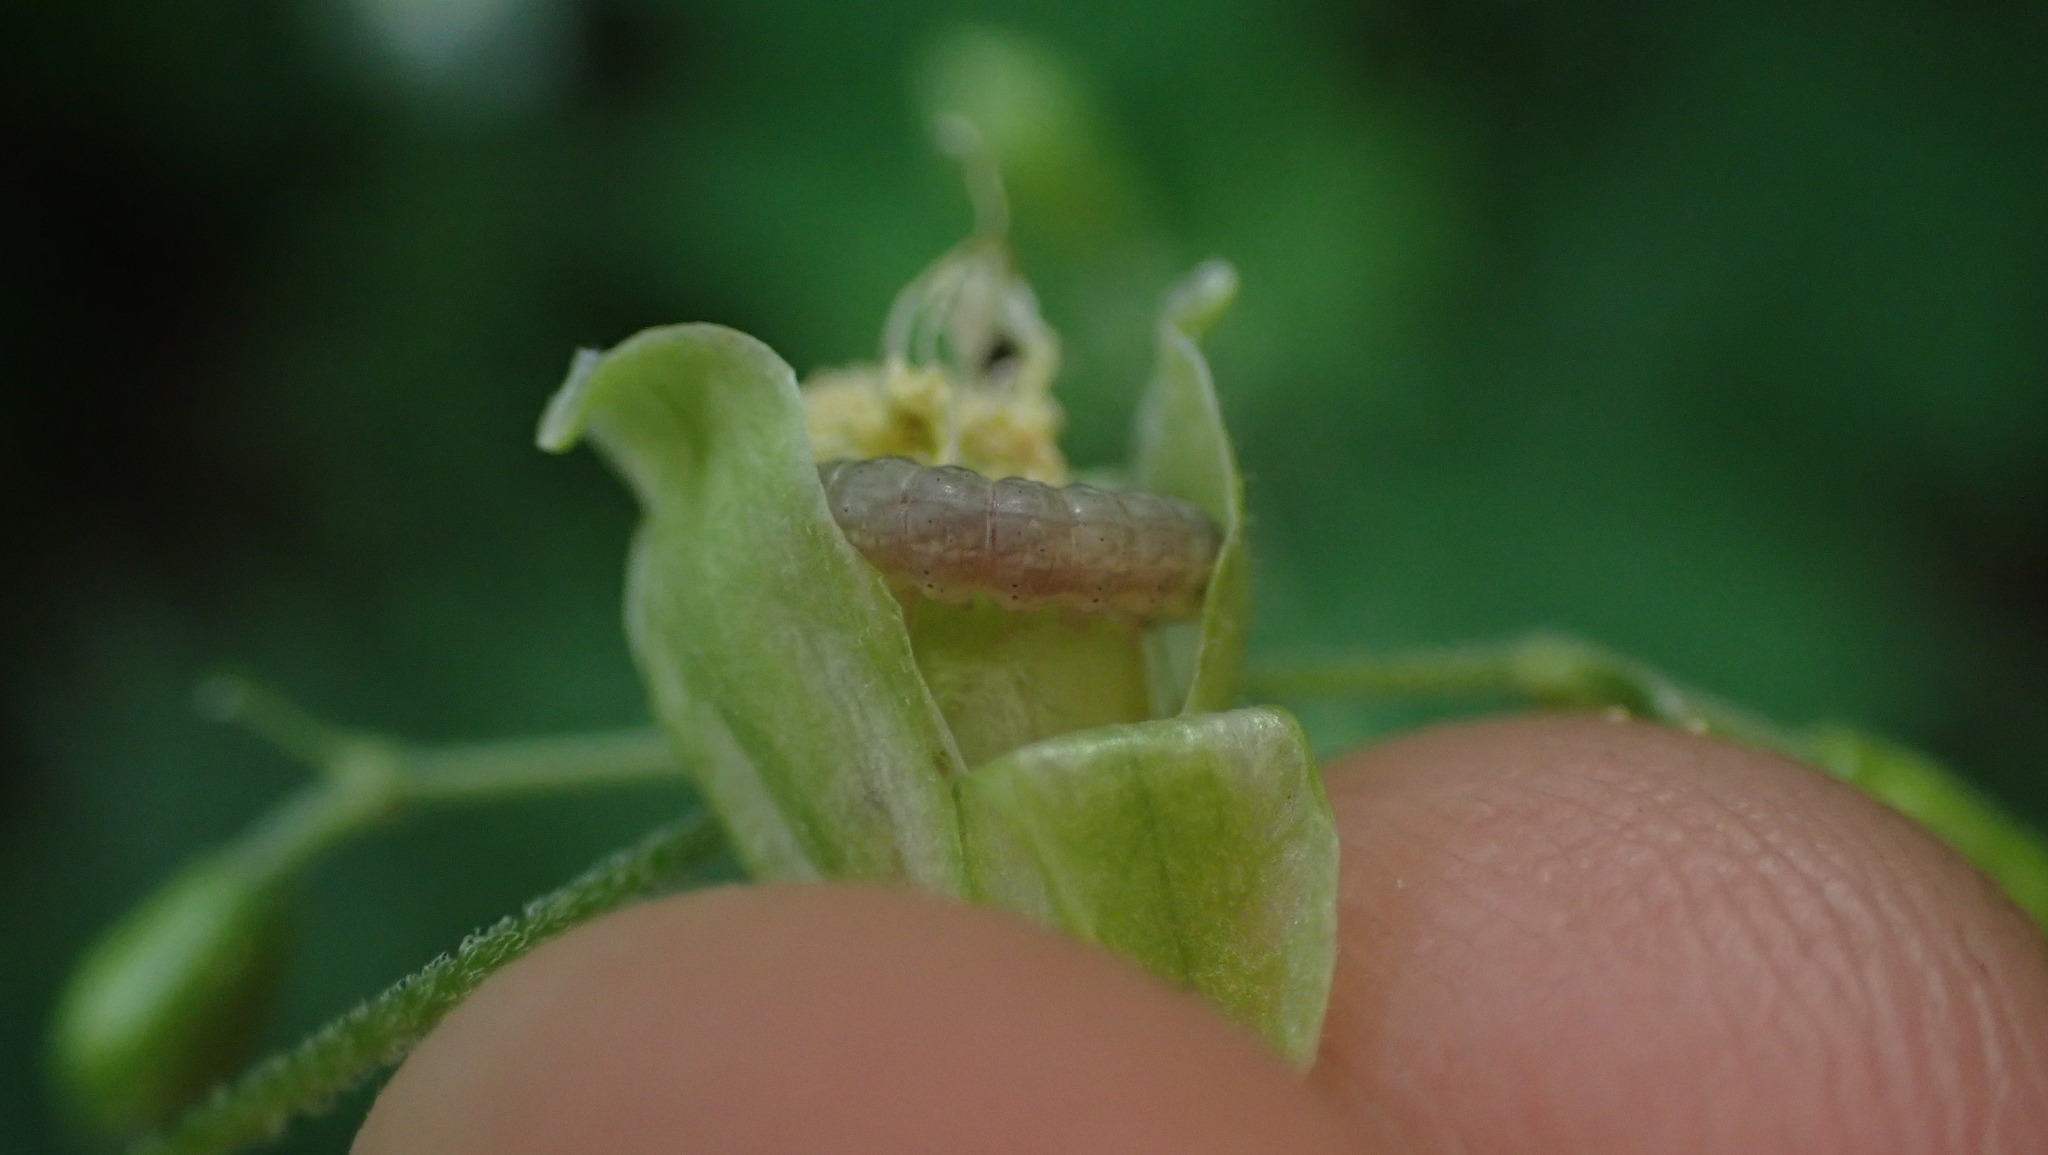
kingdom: Animalia
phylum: Arthropoda
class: Insecta
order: Lepidoptera
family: Noctuidae
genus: Hadena
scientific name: Hadena ectypa
